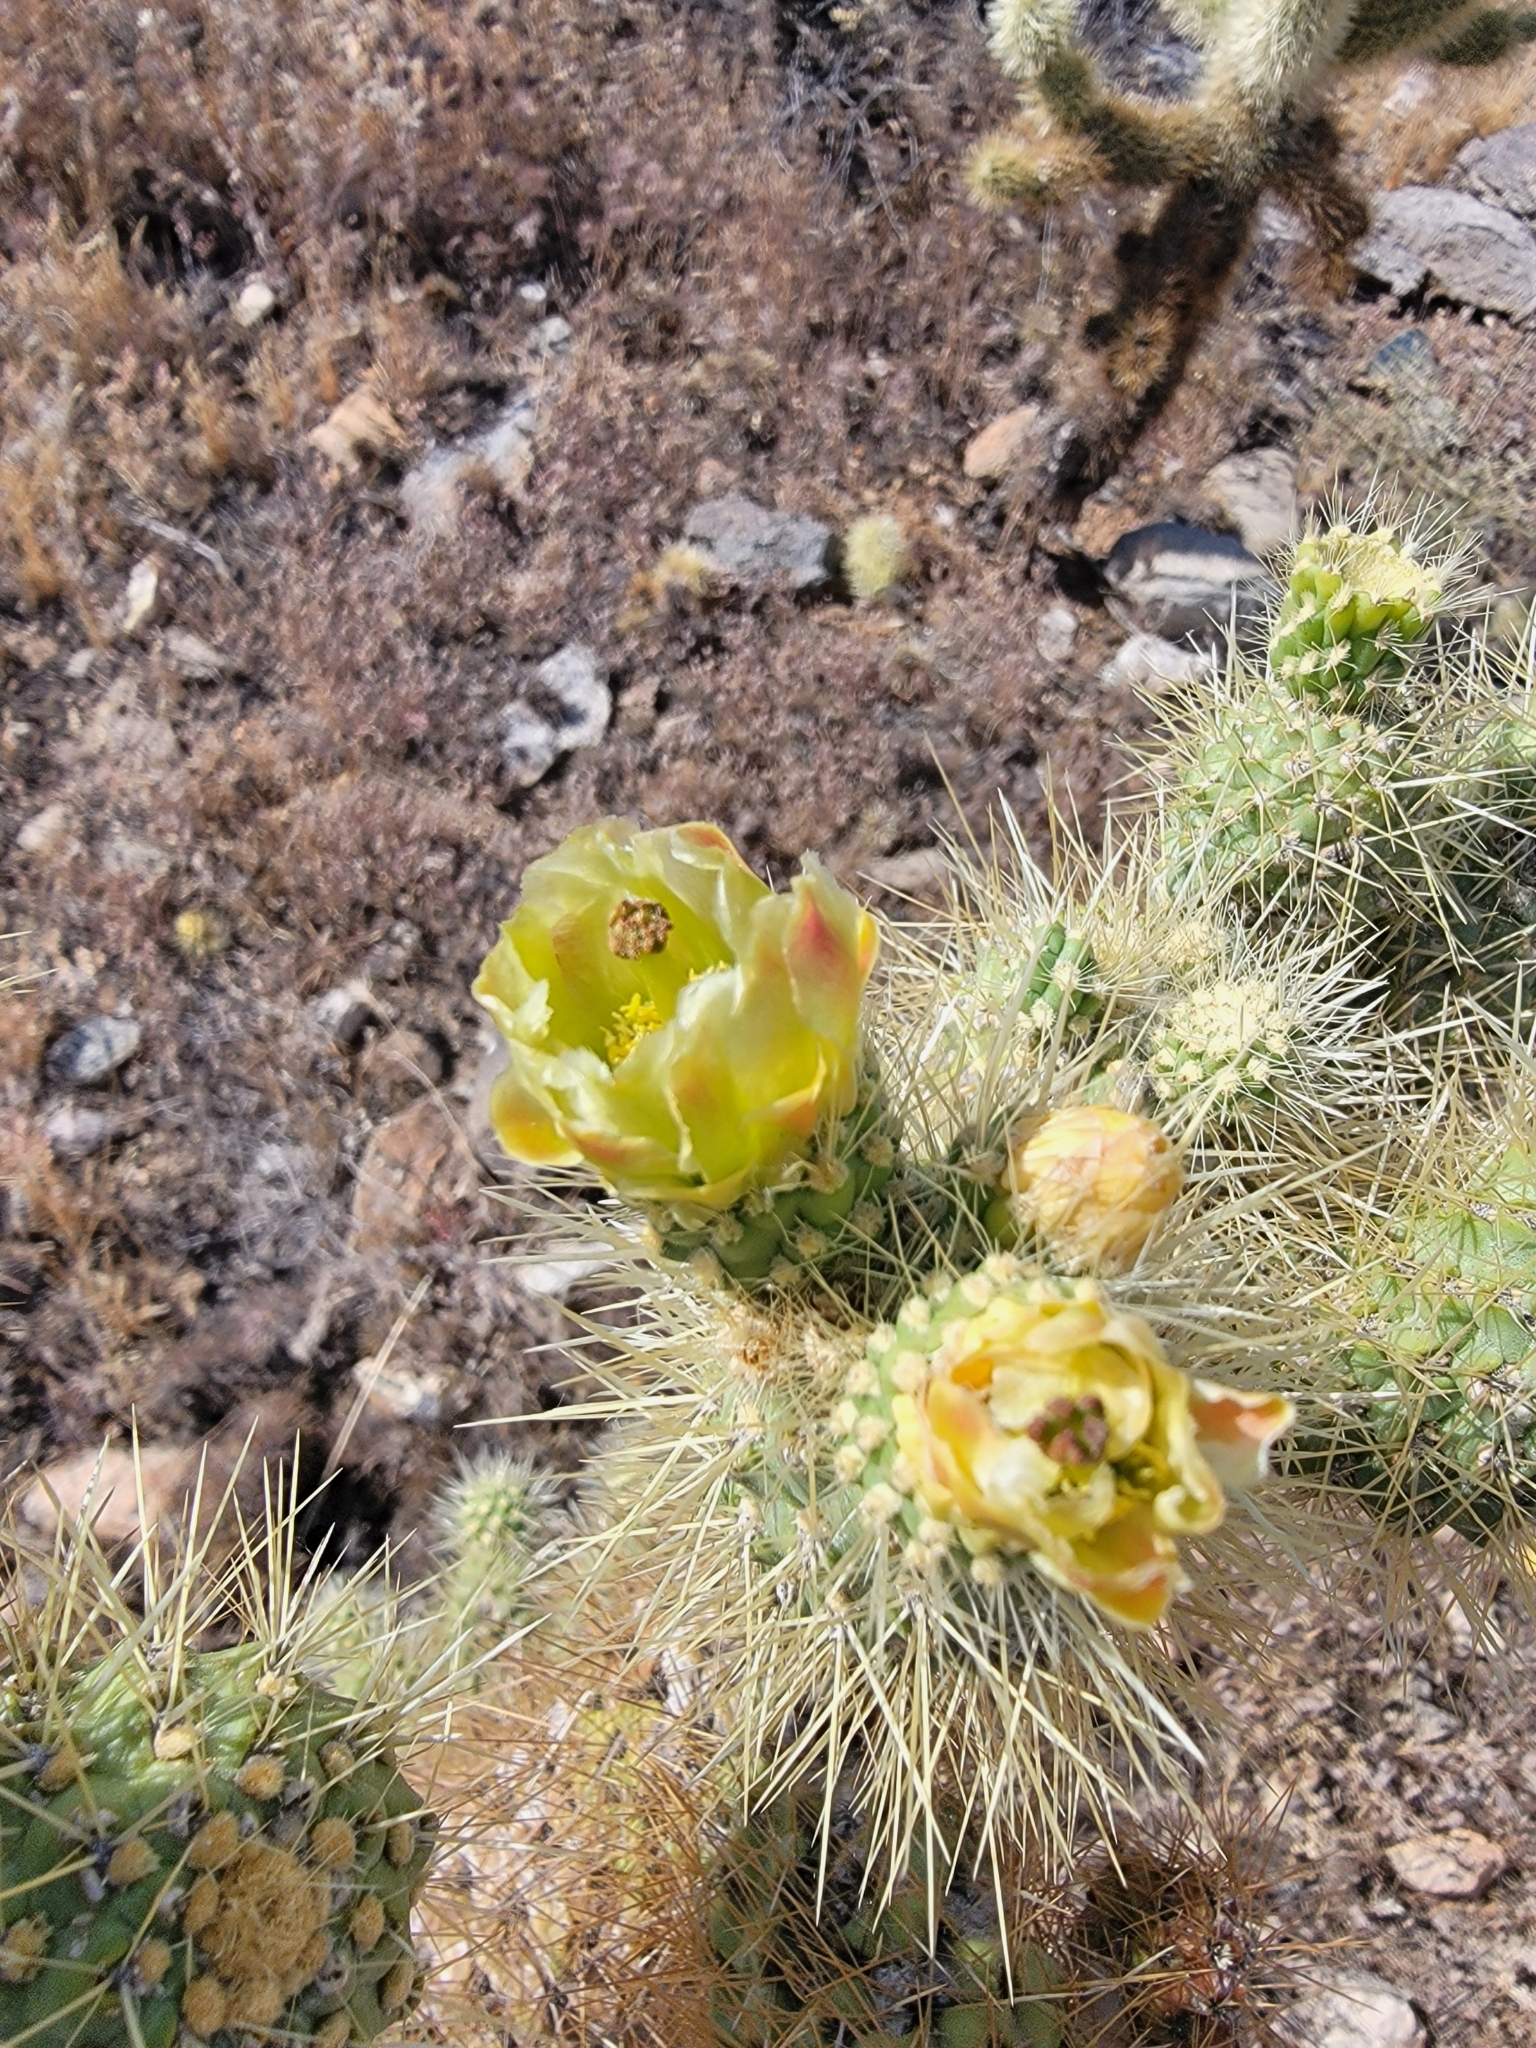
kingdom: Plantae
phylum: Tracheophyta
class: Magnoliopsida
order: Caryophyllales
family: Cactaceae
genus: Cylindropuntia
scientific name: Cylindropuntia fosbergii
